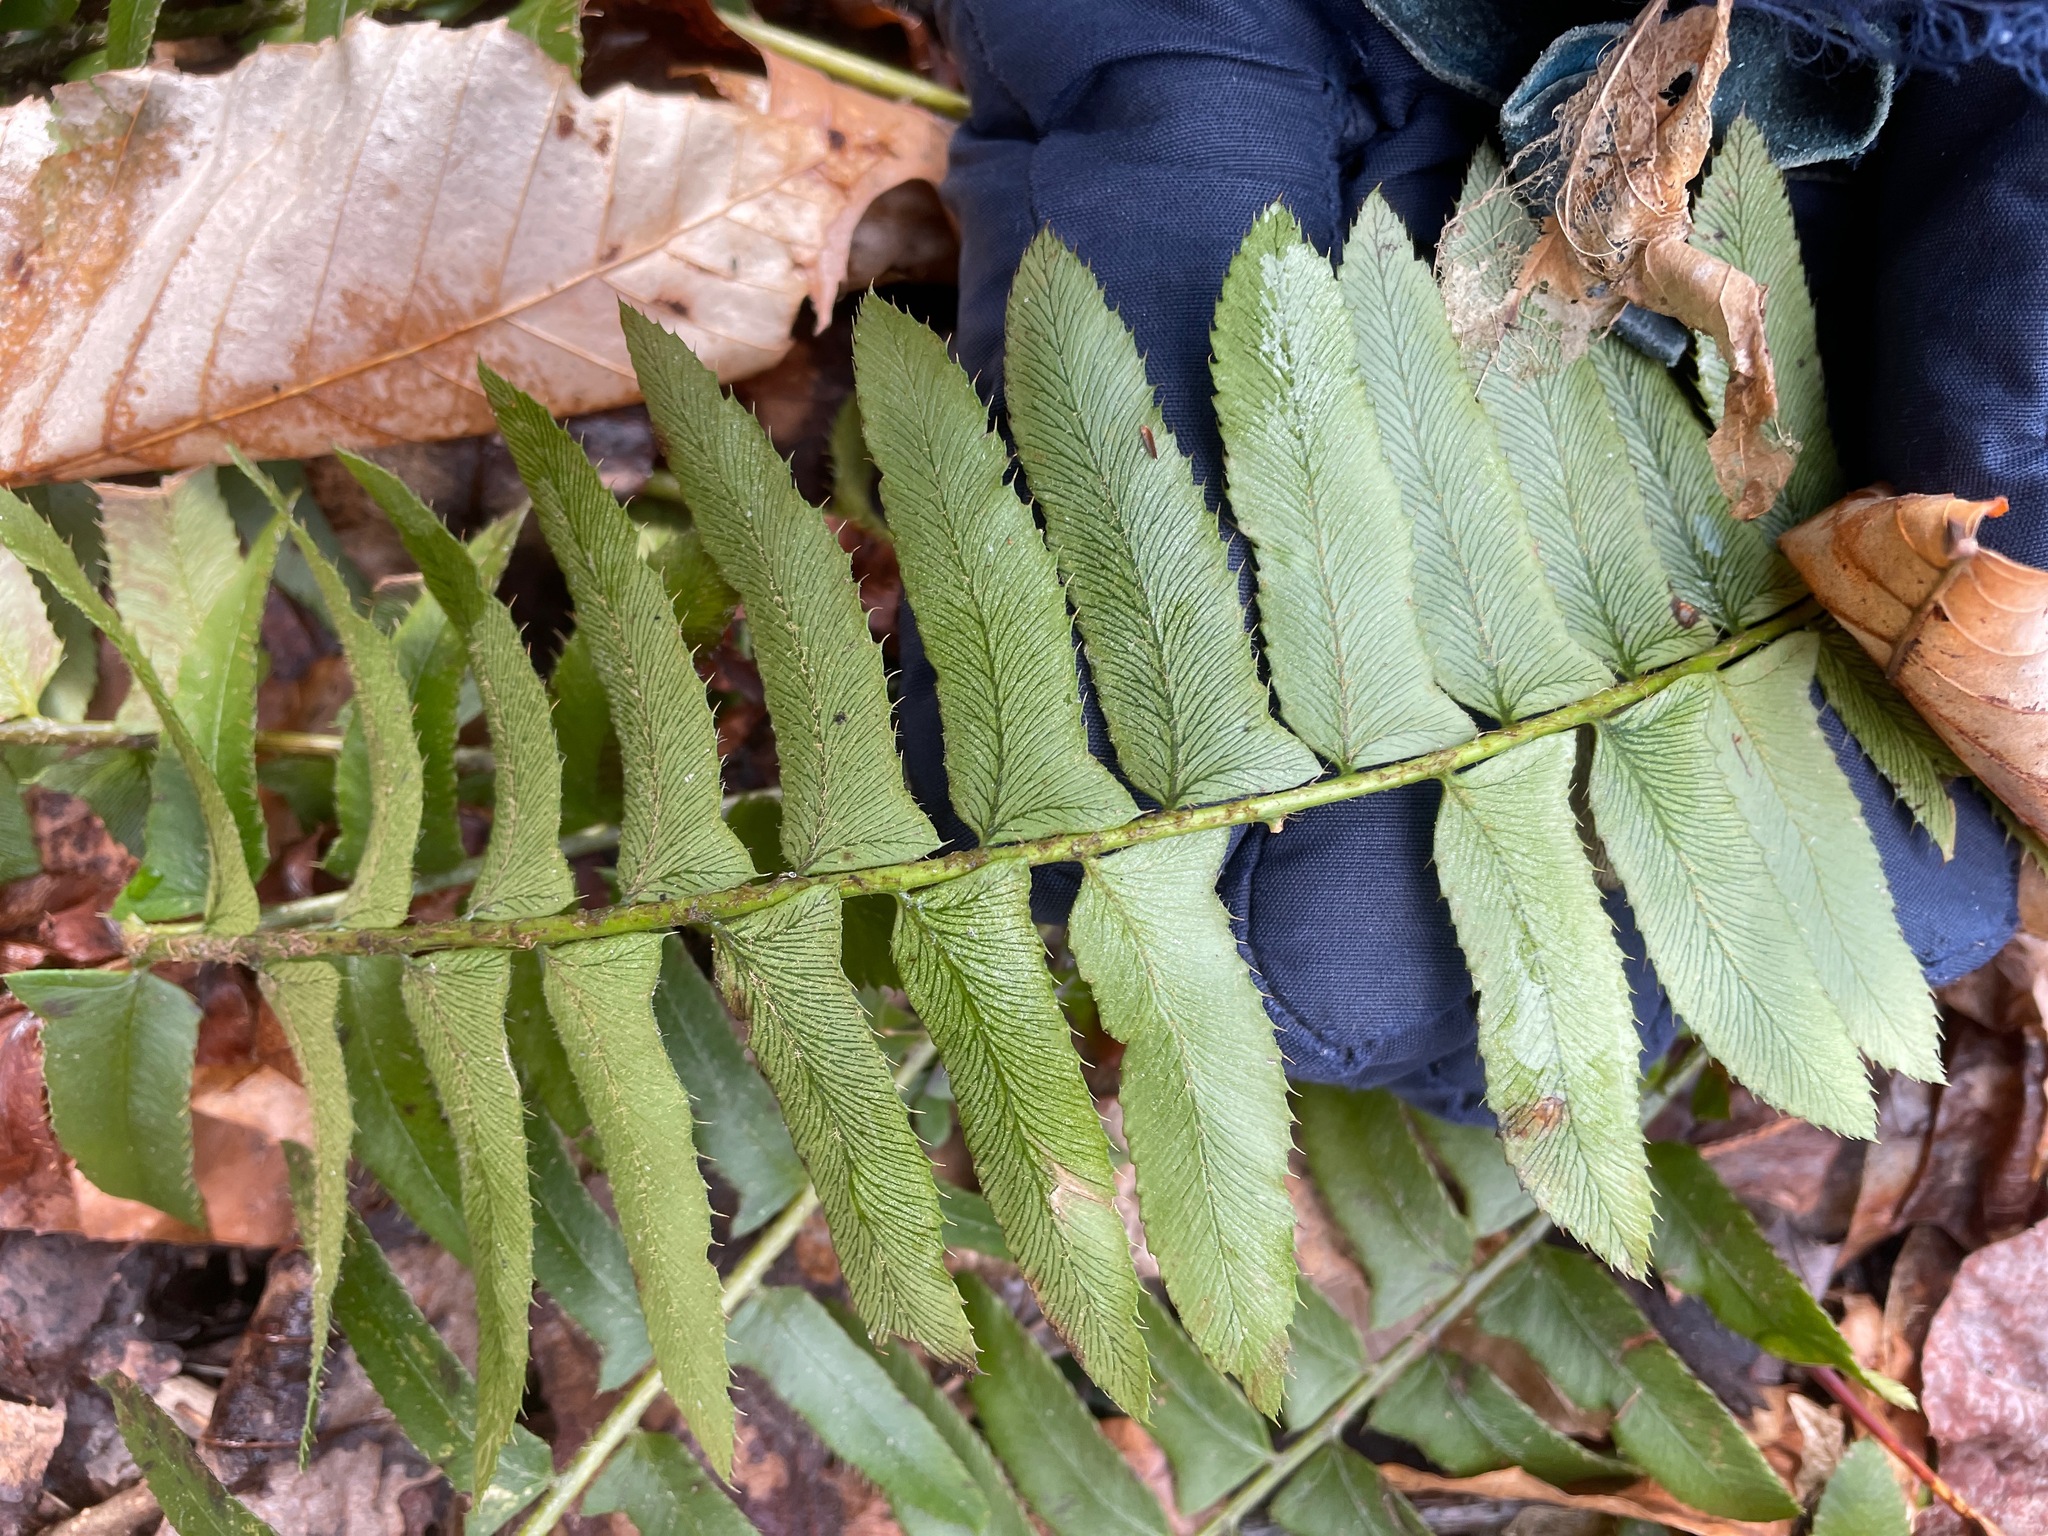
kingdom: Plantae
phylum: Tracheophyta
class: Polypodiopsida
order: Polypodiales
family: Dryopteridaceae
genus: Polystichum
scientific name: Polystichum acrostichoides
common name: Christmas fern
